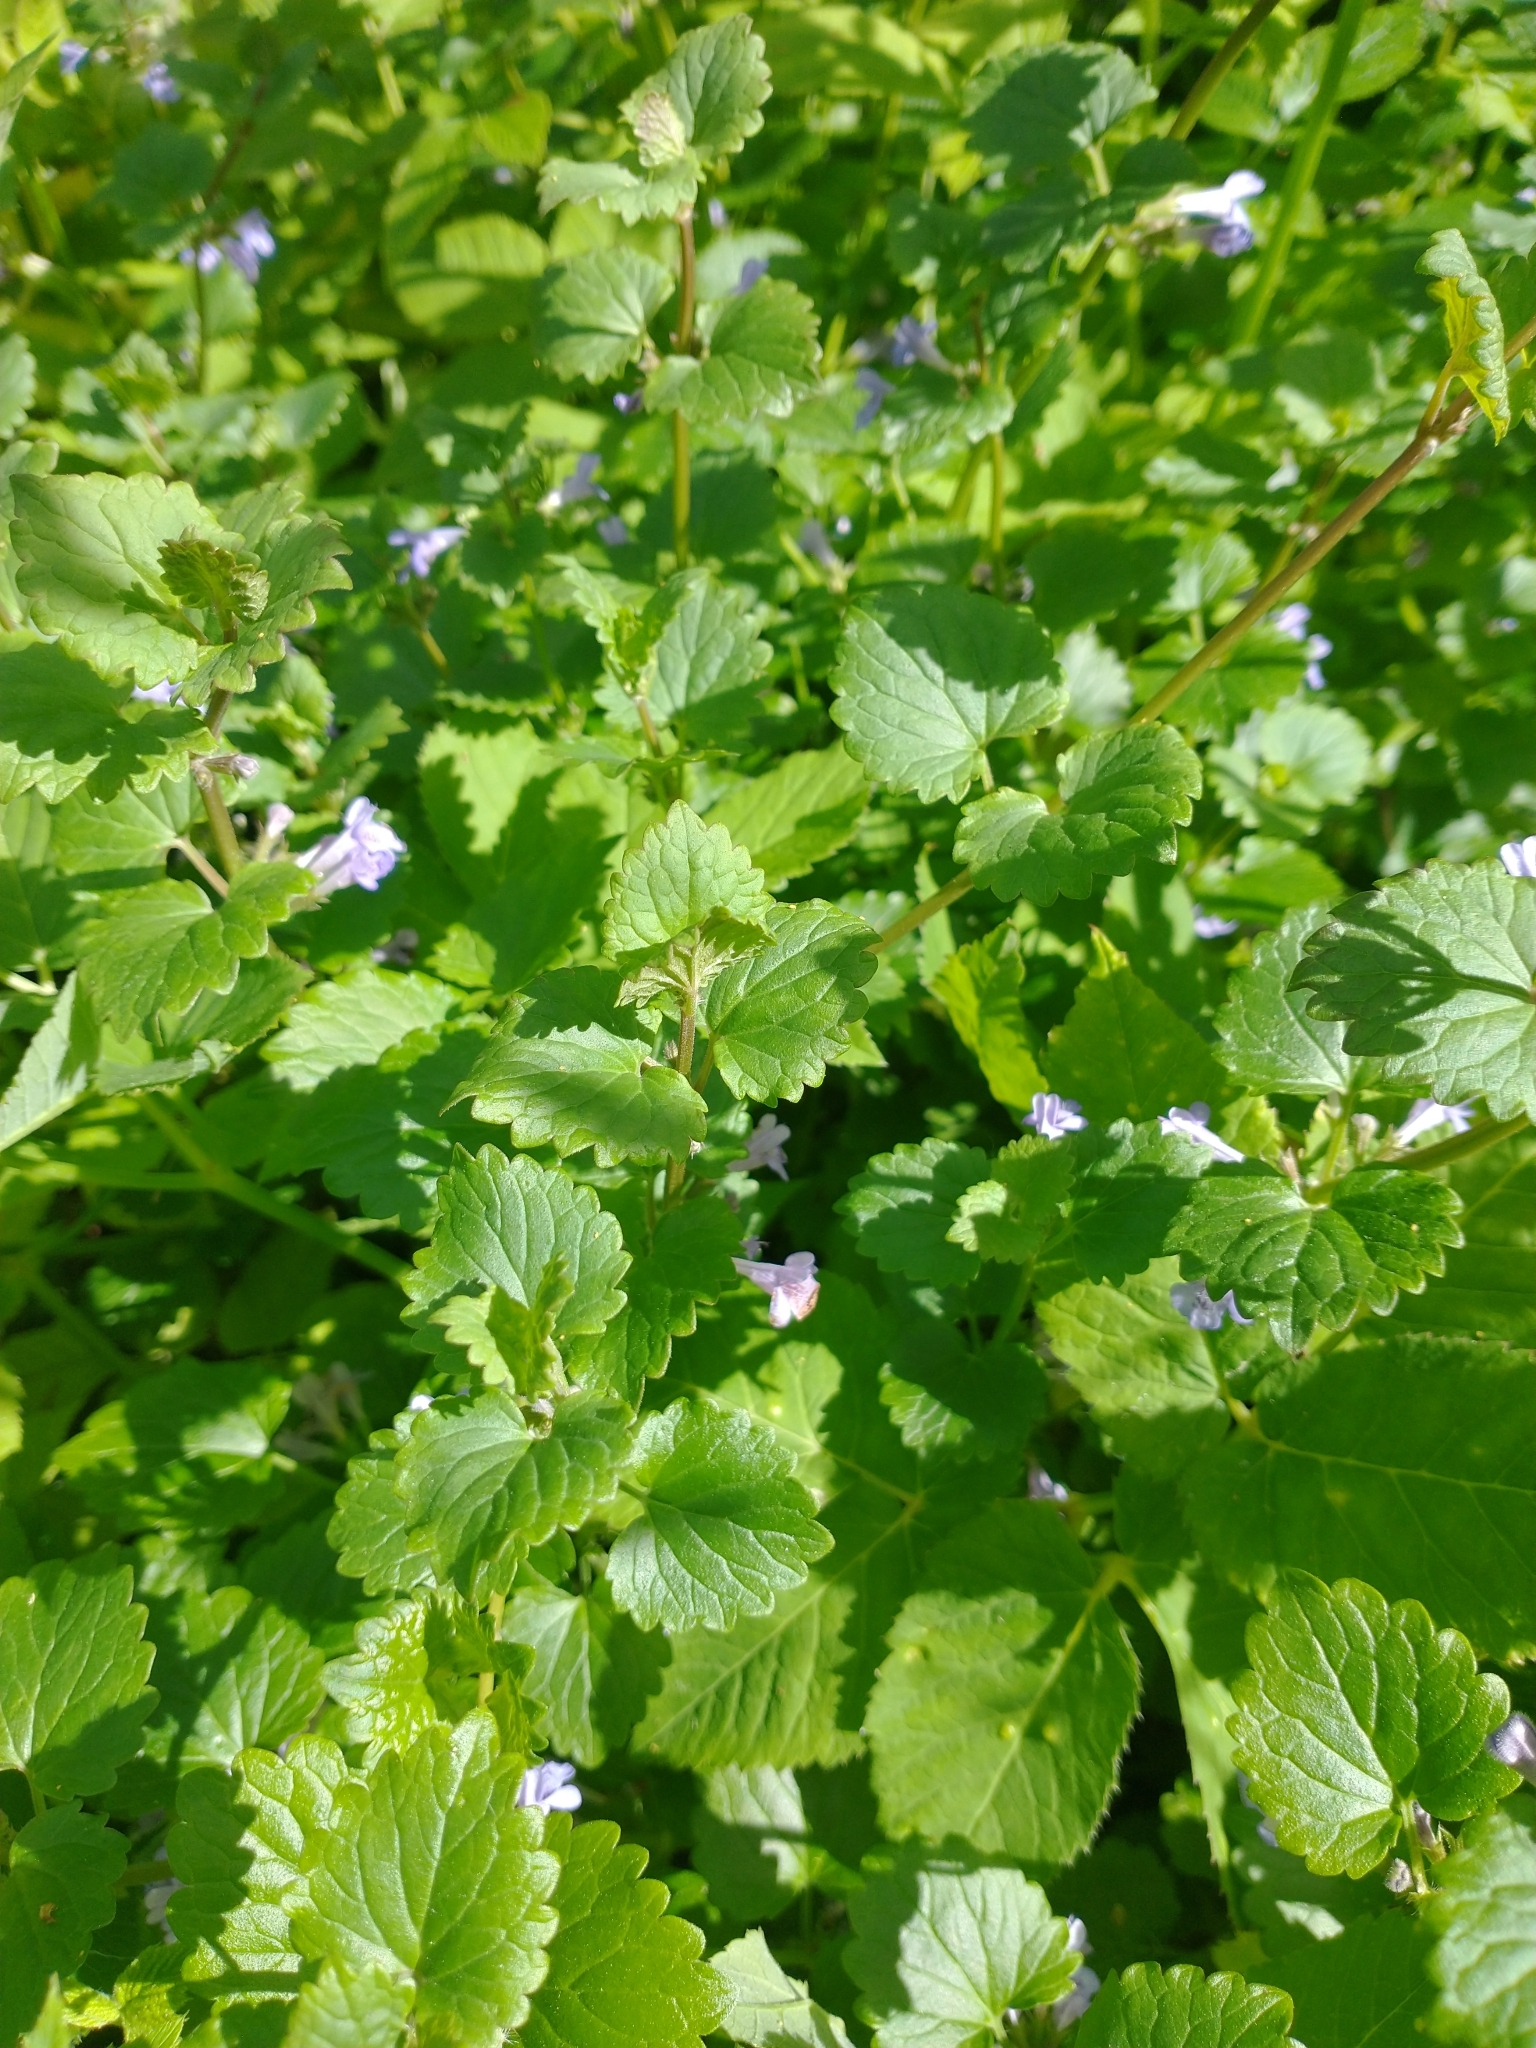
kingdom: Plantae
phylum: Tracheophyta
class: Magnoliopsida
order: Lamiales
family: Lamiaceae
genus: Glechoma
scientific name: Glechoma hederacea
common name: Ground ivy
